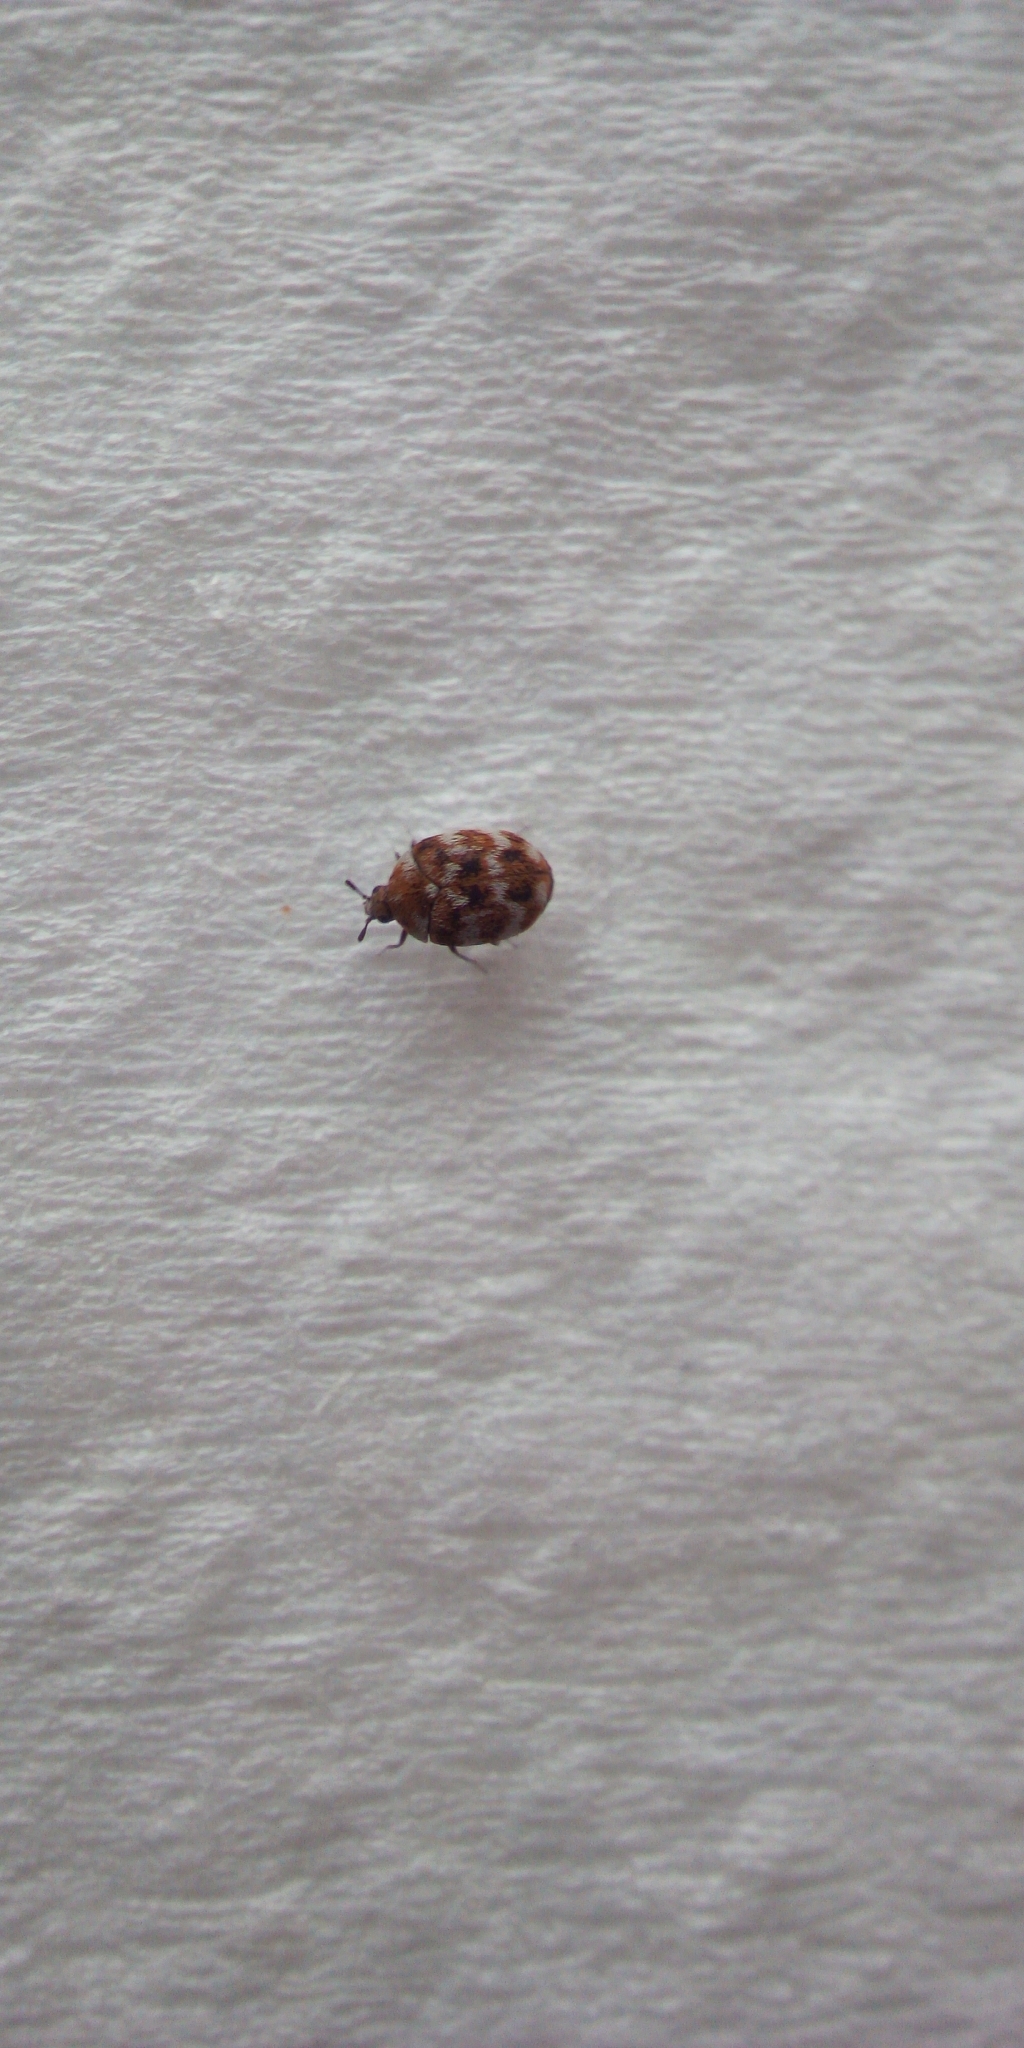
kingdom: Animalia
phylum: Arthropoda
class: Insecta
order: Coleoptera
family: Dermestidae
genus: Anthrenus
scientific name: Anthrenus verbasci
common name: Varied carpet beetle
